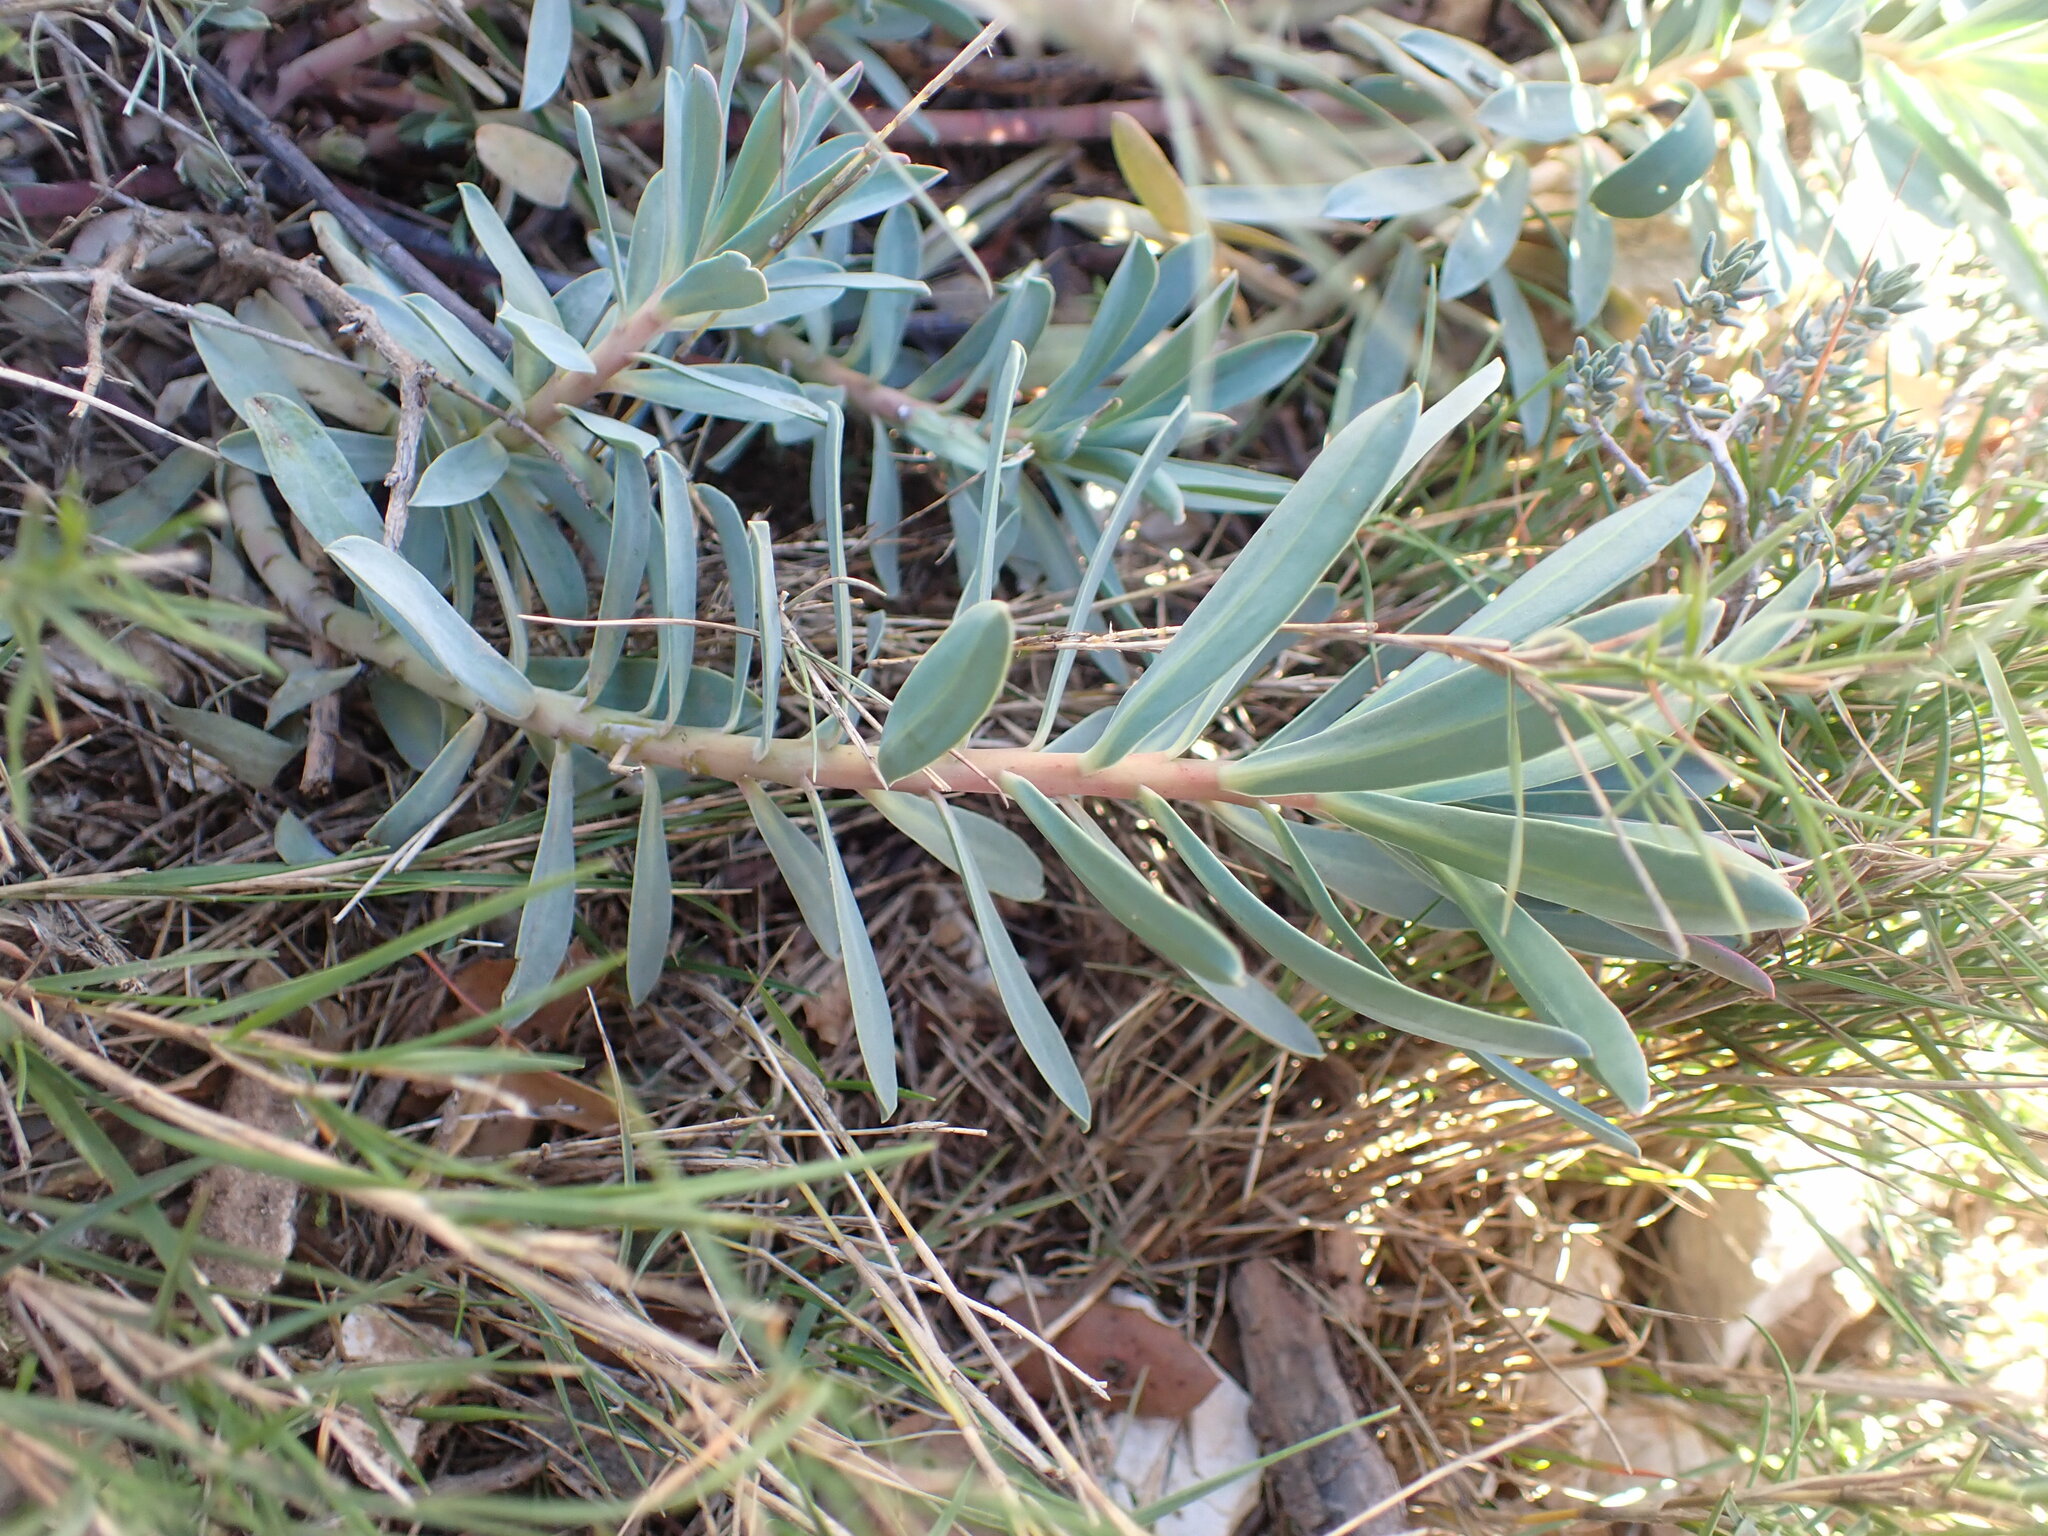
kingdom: Plantae
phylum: Tracheophyta
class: Magnoliopsida
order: Malpighiales
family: Euphorbiaceae
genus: Euphorbia
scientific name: Euphorbia nicaeensis
